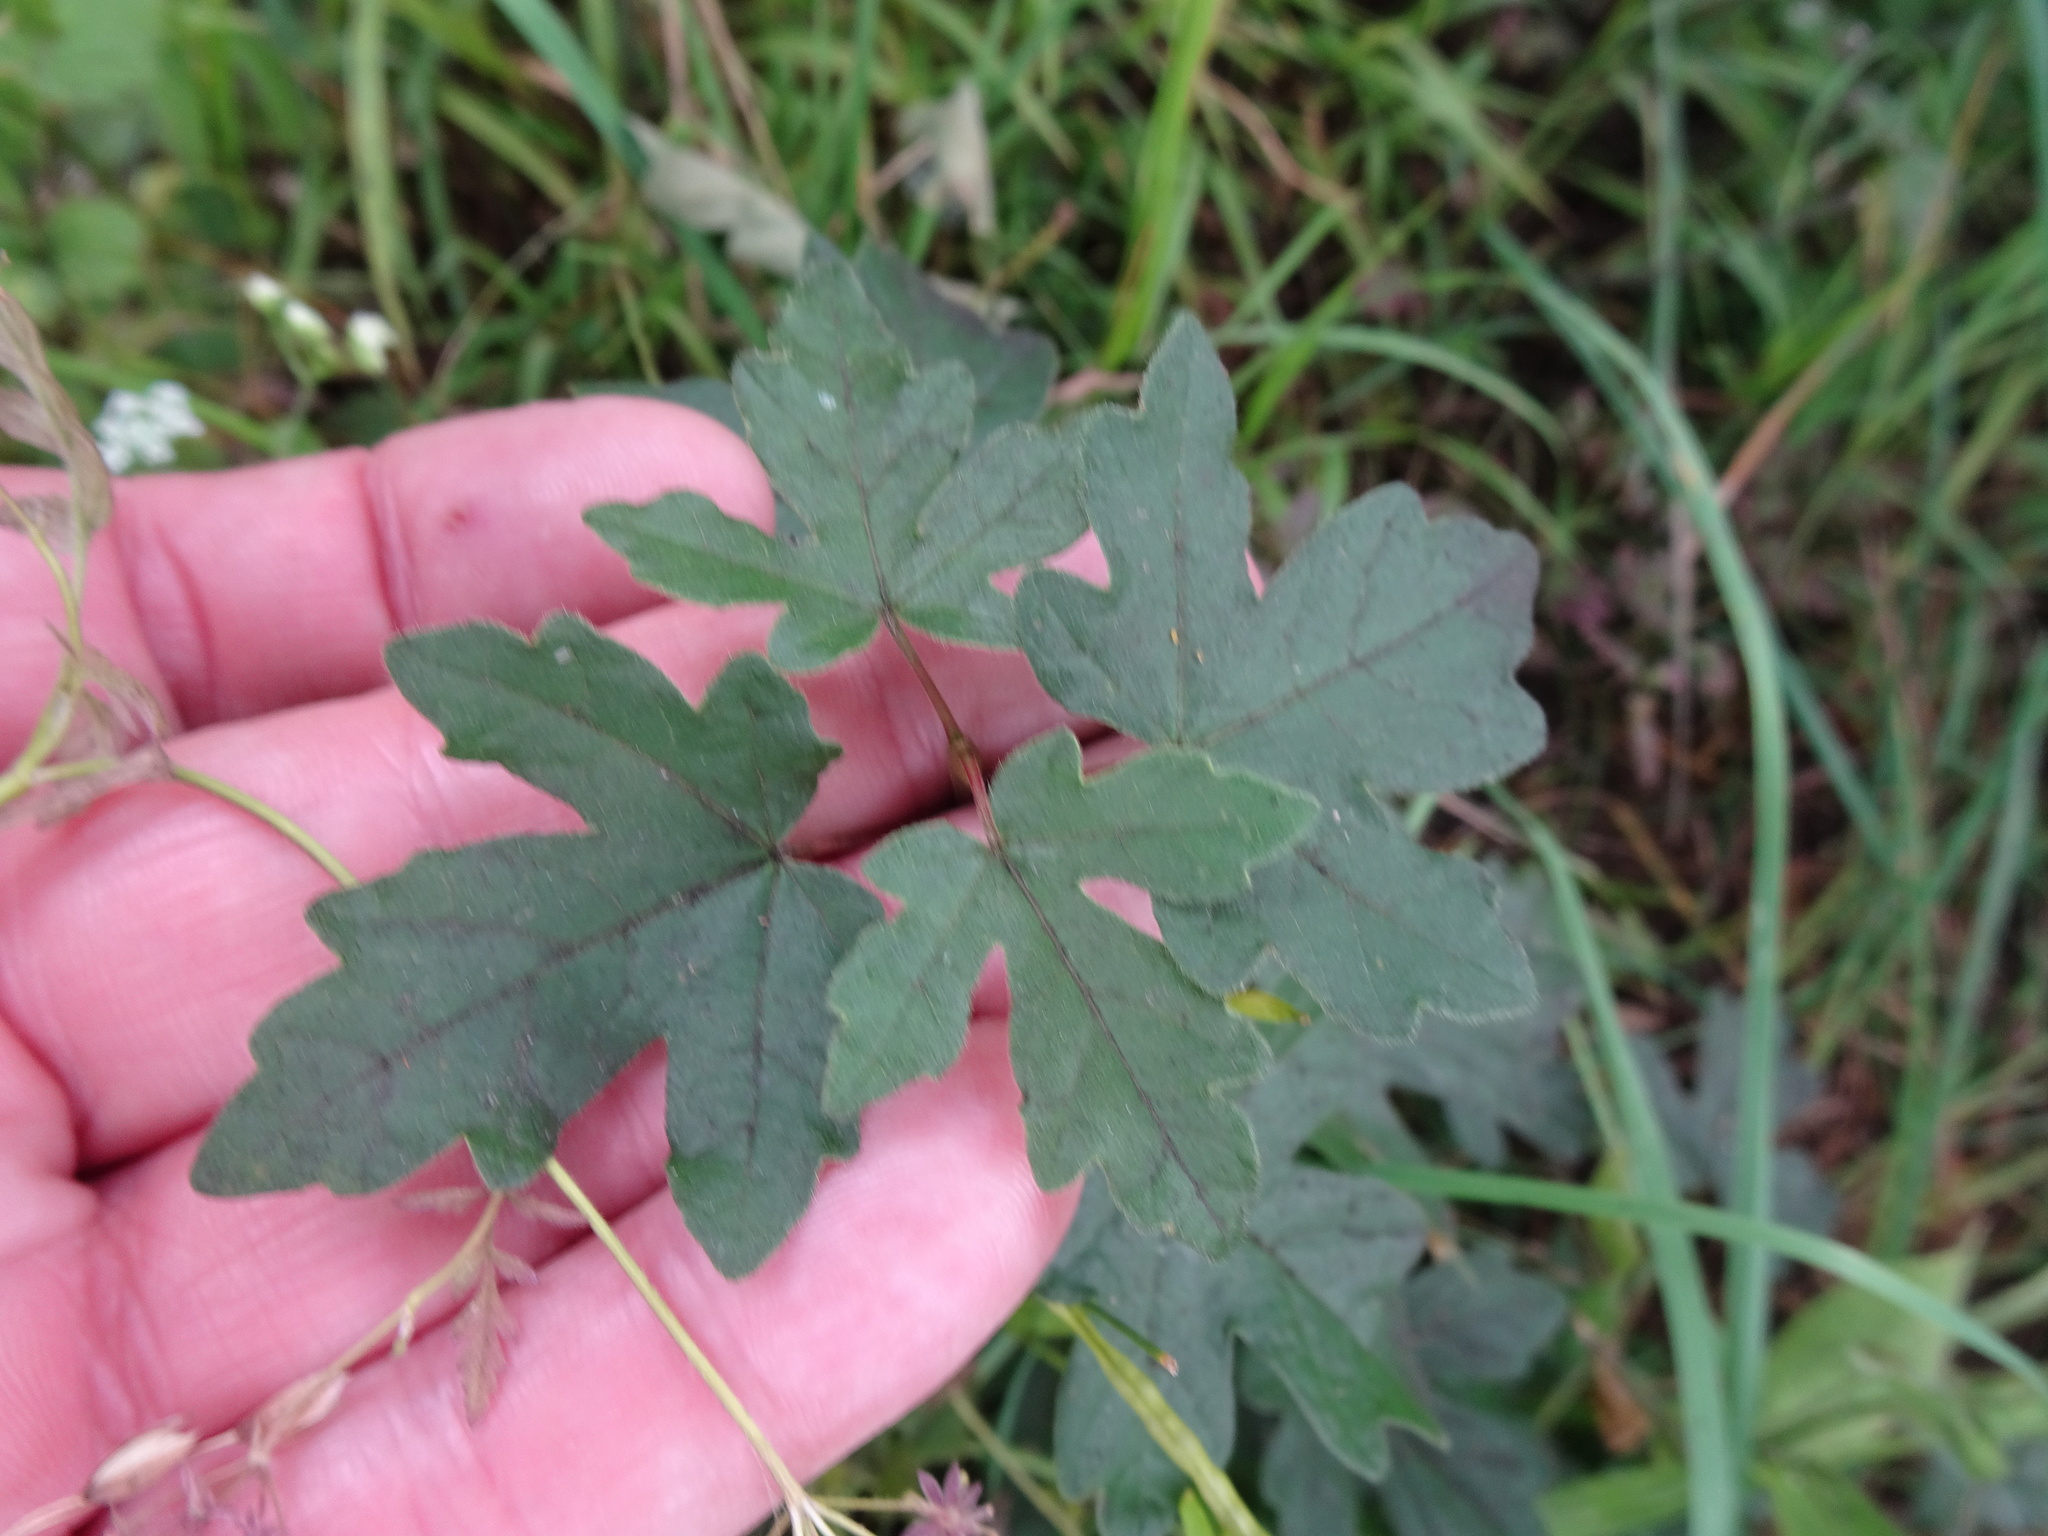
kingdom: Plantae
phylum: Tracheophyta
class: Magnoliopsida
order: Sapindales
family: Sapindaceae
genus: Acer
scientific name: Acer campestre
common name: Field maple
